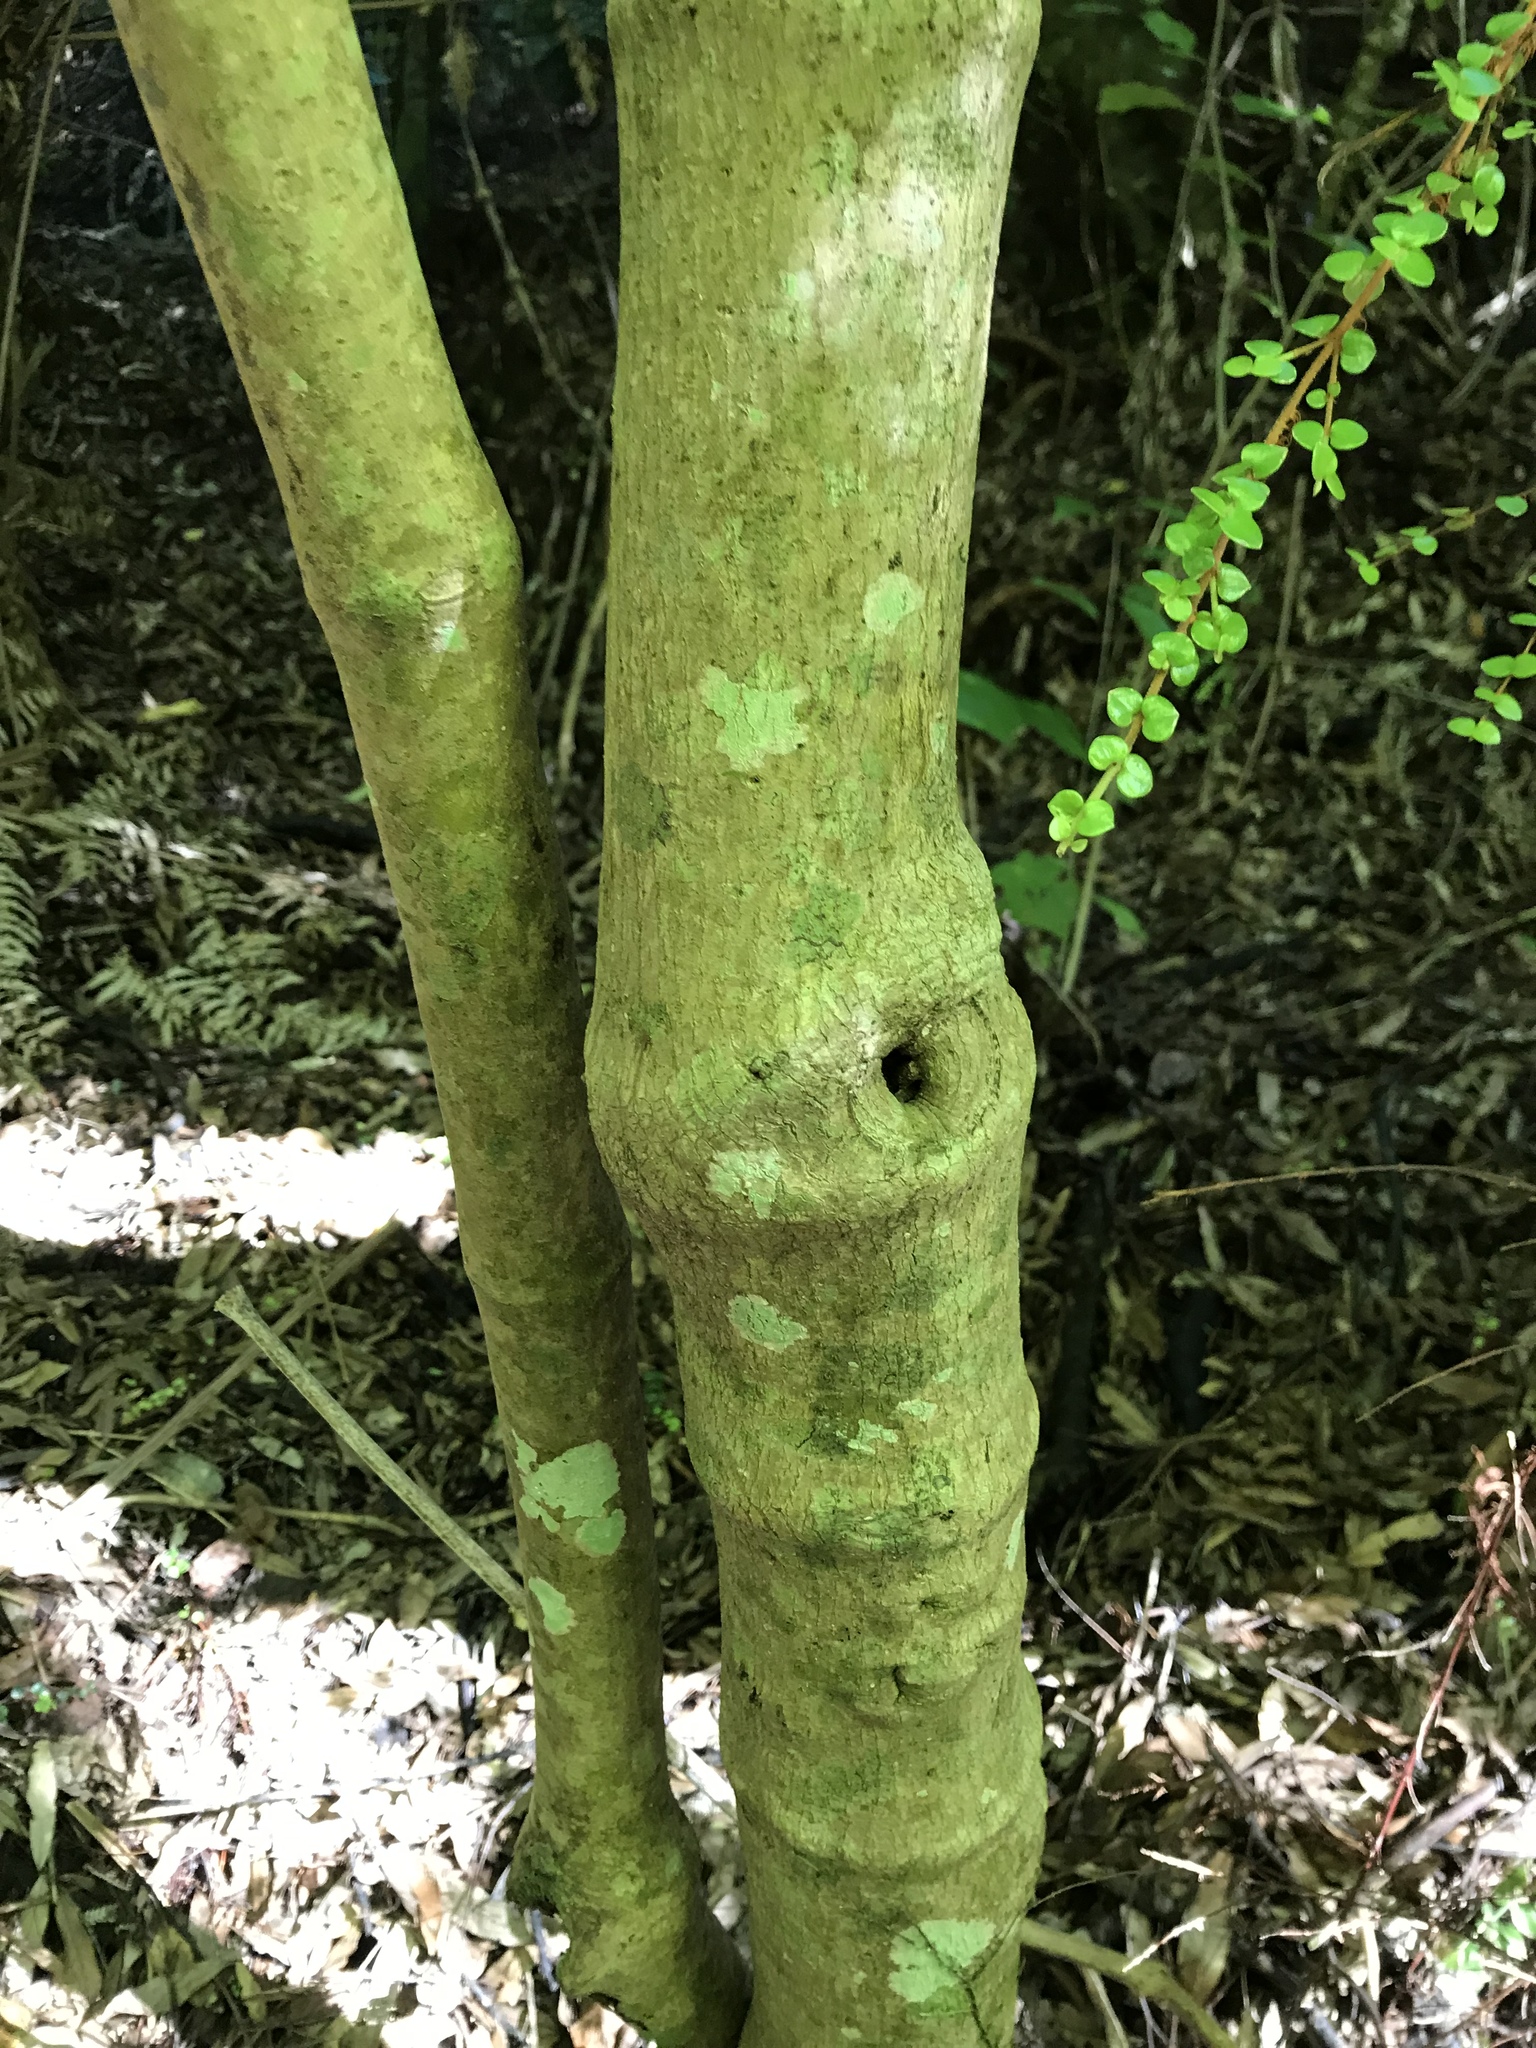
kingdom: Plantae
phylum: Tracheophyta
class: Magnoliopsida
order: Malpighiales
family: Violaceae
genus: Melicytus
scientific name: Melicytus ramiflorus
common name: Mahoe
